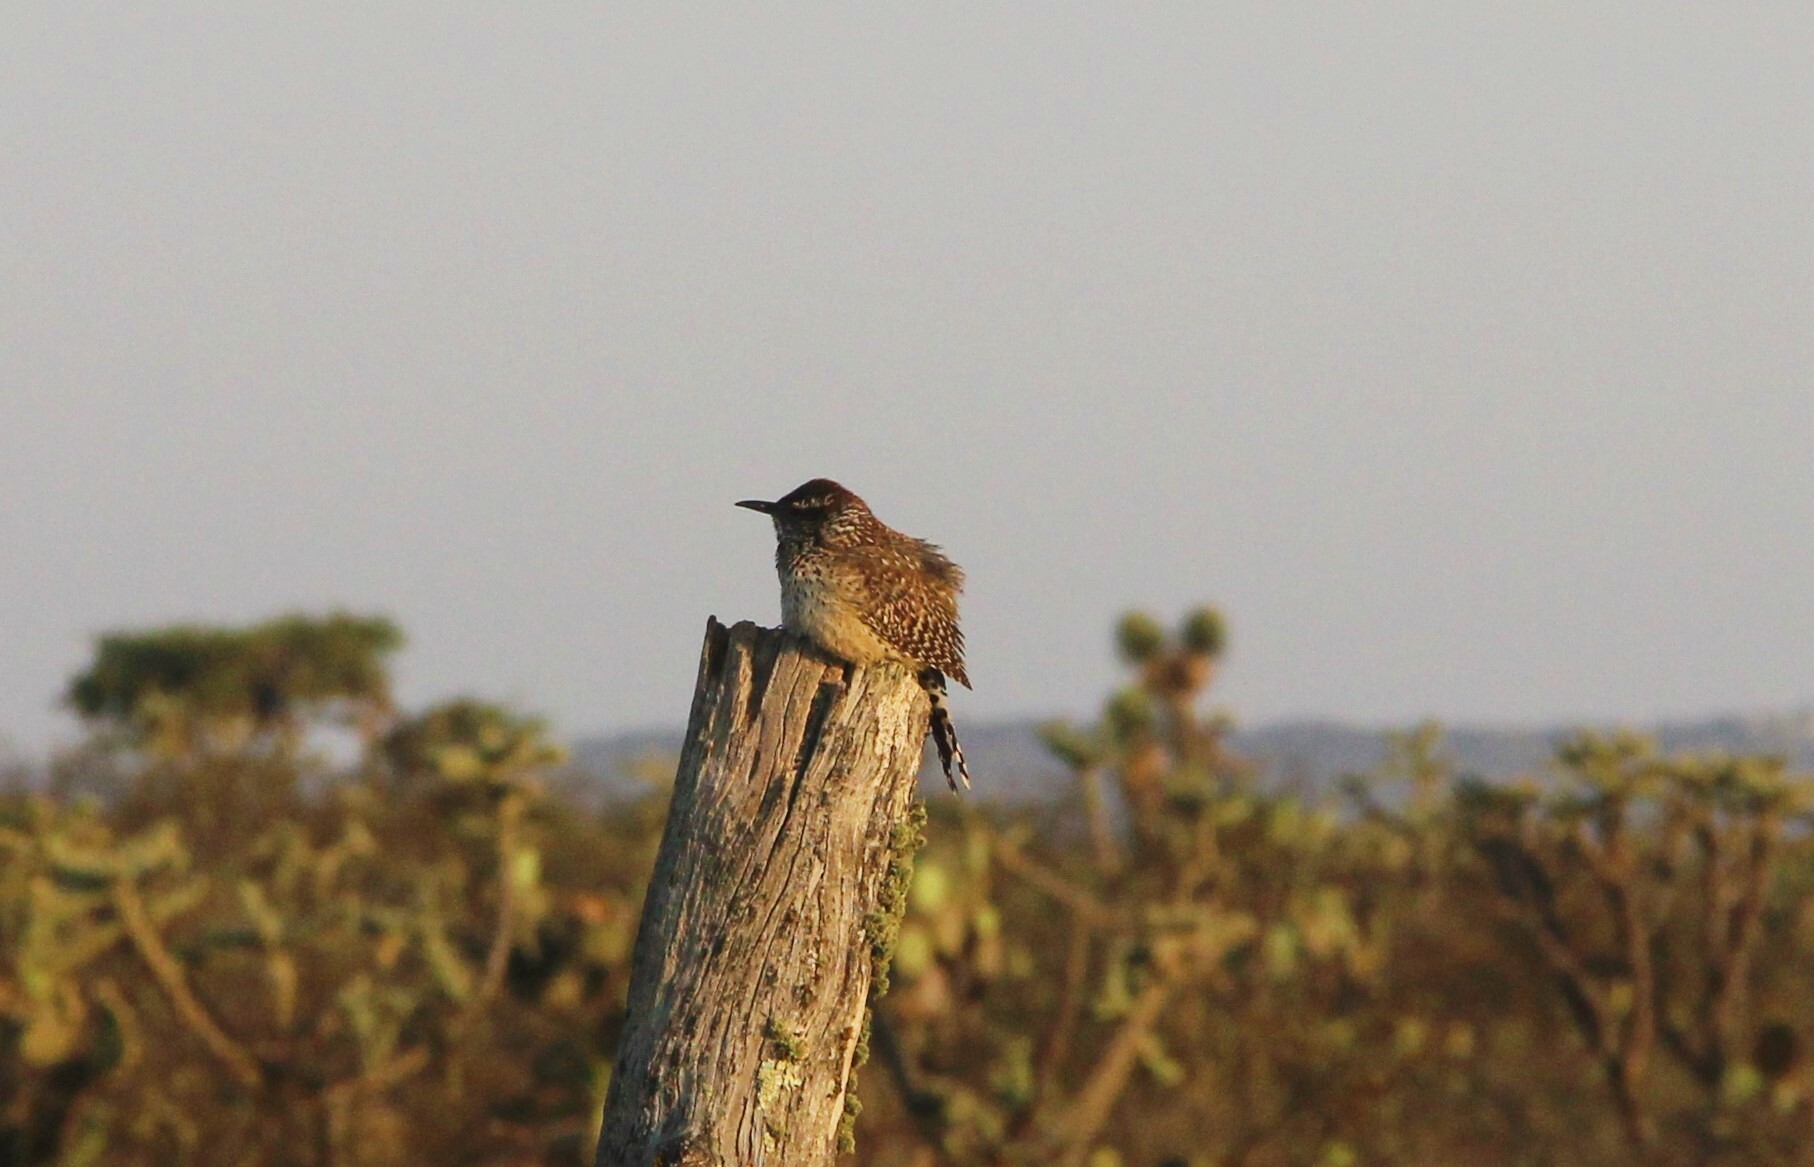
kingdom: Animalia
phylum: Chordata
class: Aves
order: Passeriformes
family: Troglodytidae
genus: Campylorhynchus
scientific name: Campylorhynchus brunneicapillus
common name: Cactus wren
